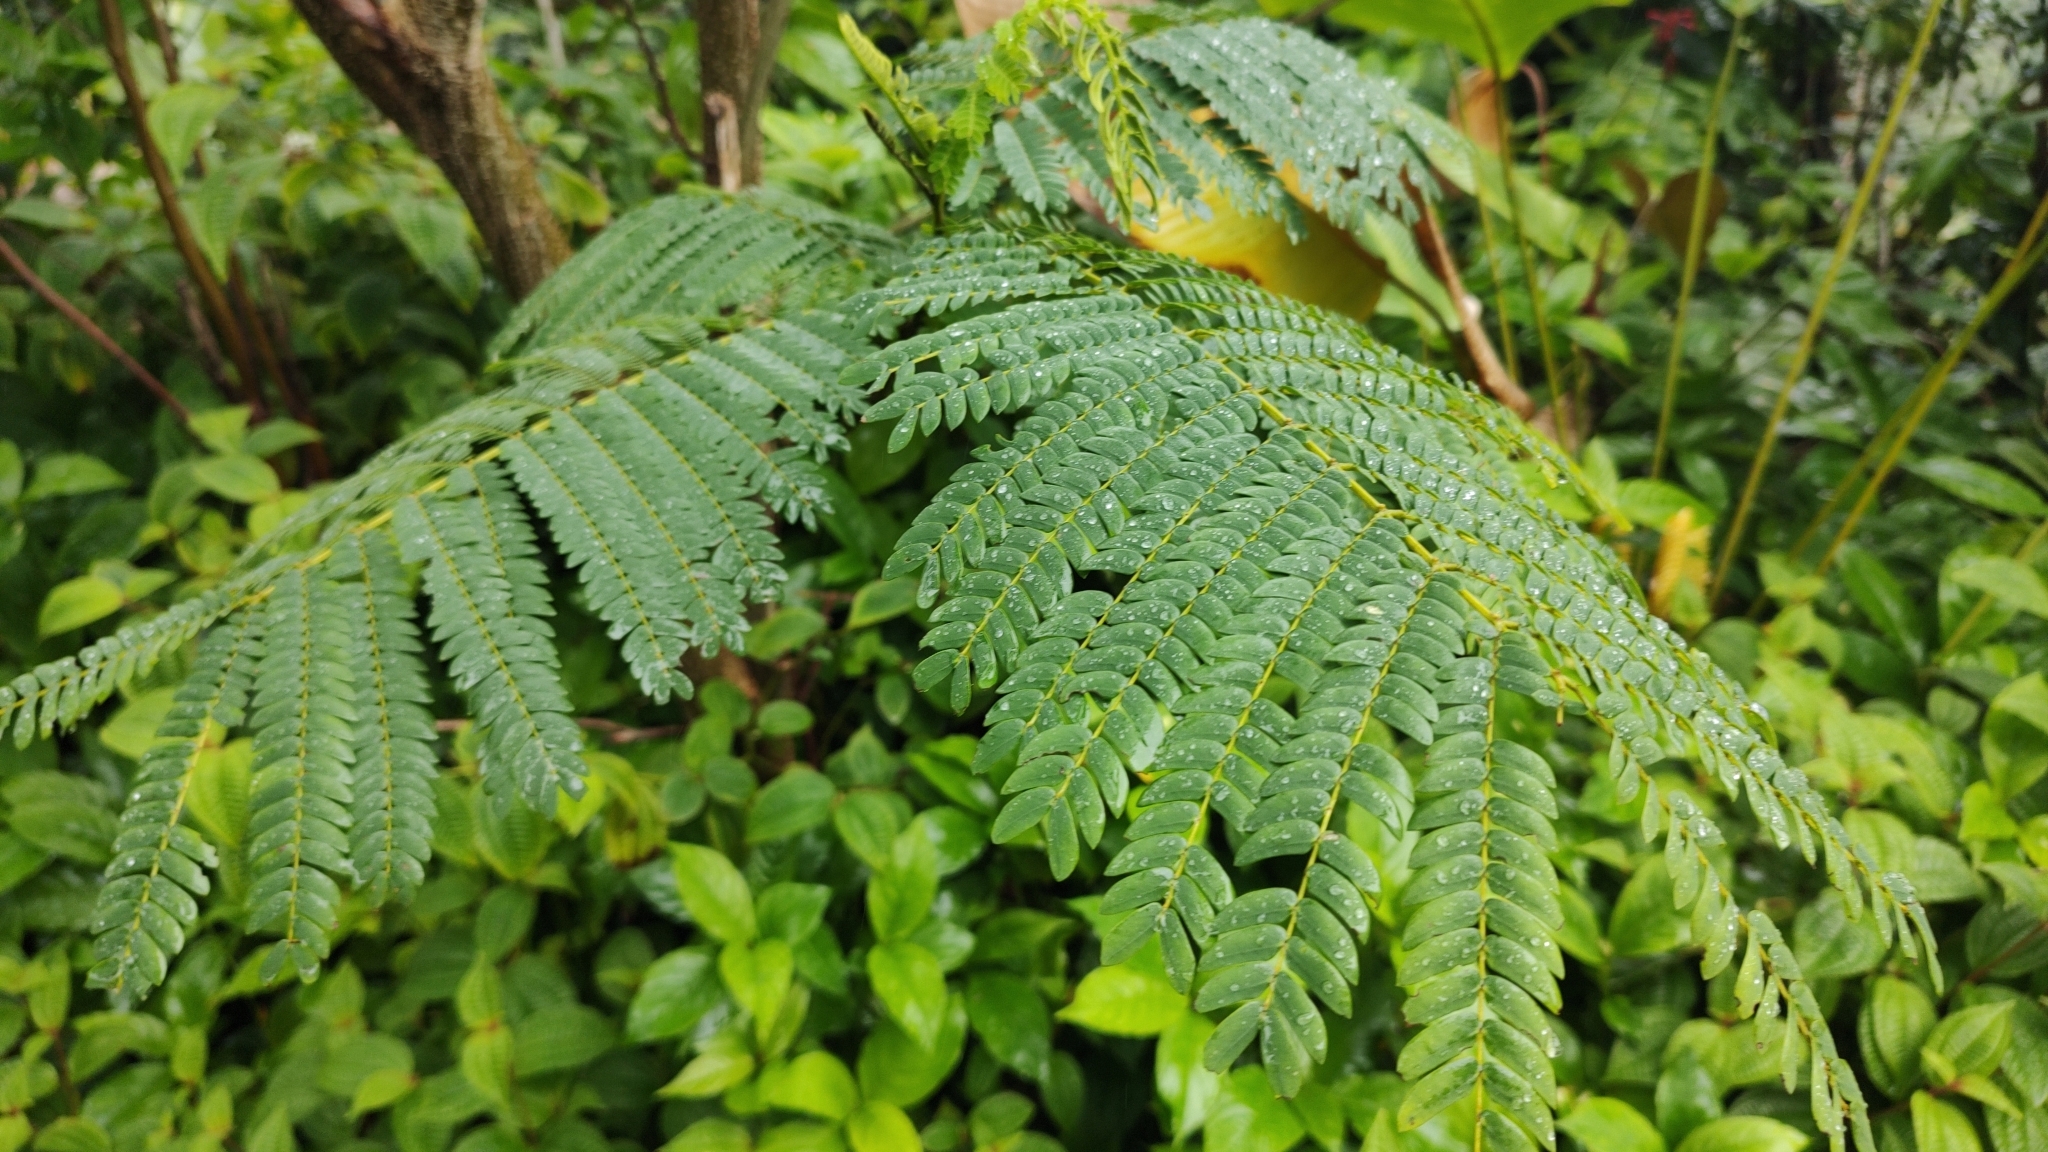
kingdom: Plantae
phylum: Tracheophyta
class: Magnoliopsida
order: Fabales
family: Fabaceae
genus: Falcataria
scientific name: Falcataria falcata
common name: Moluccan albizia
